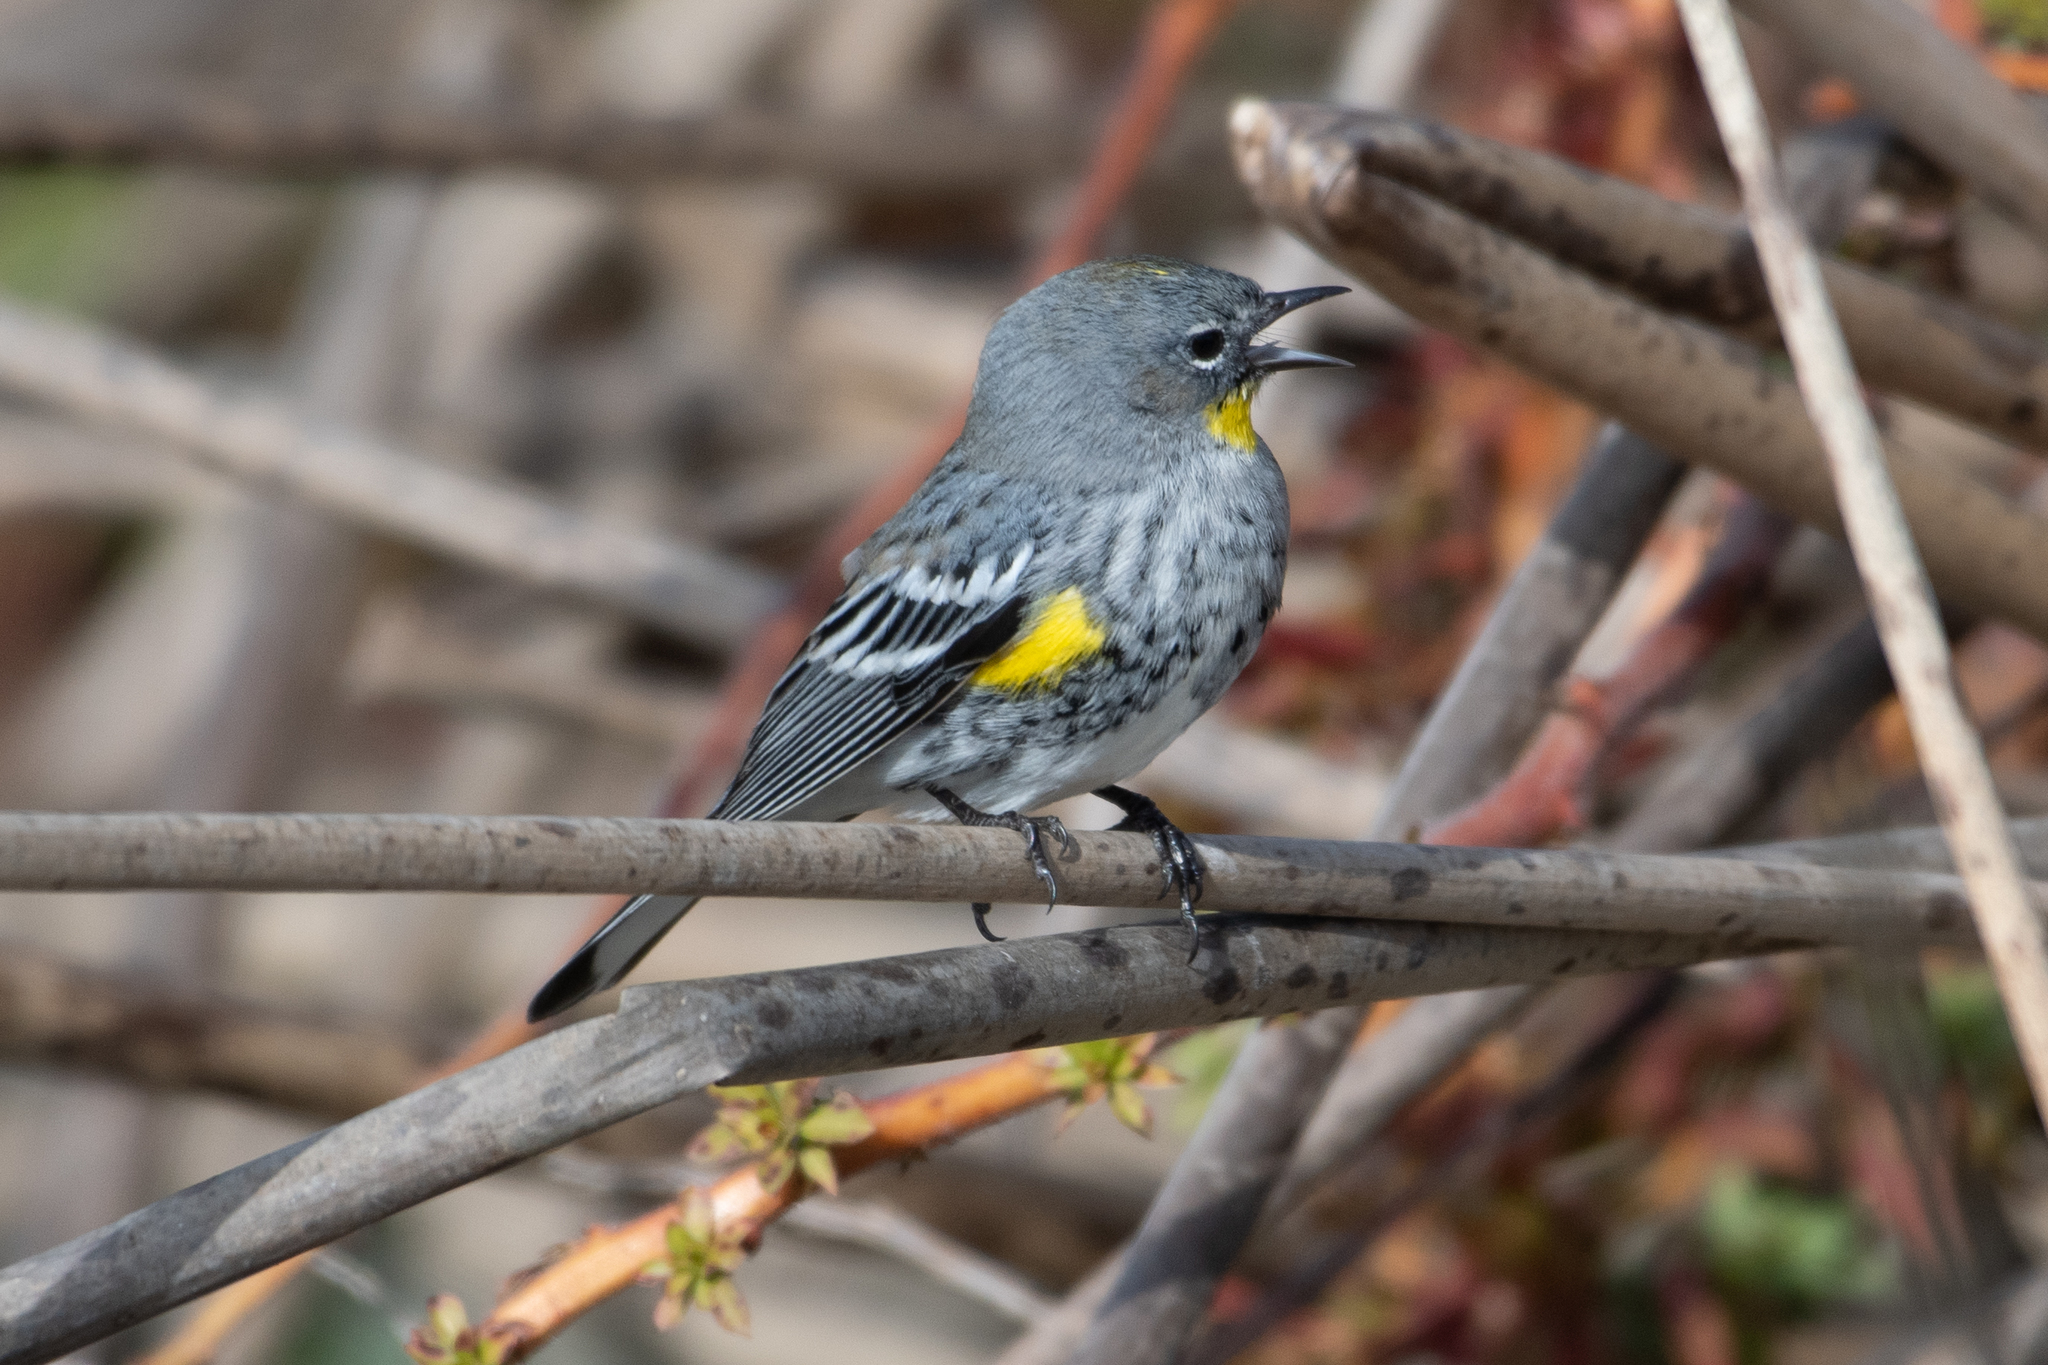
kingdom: Animalia
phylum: Chordata
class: Aves
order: Passeriformes
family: Parulidae
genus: Setophaga
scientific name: Setophaga coronata
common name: Myrtle warbler
